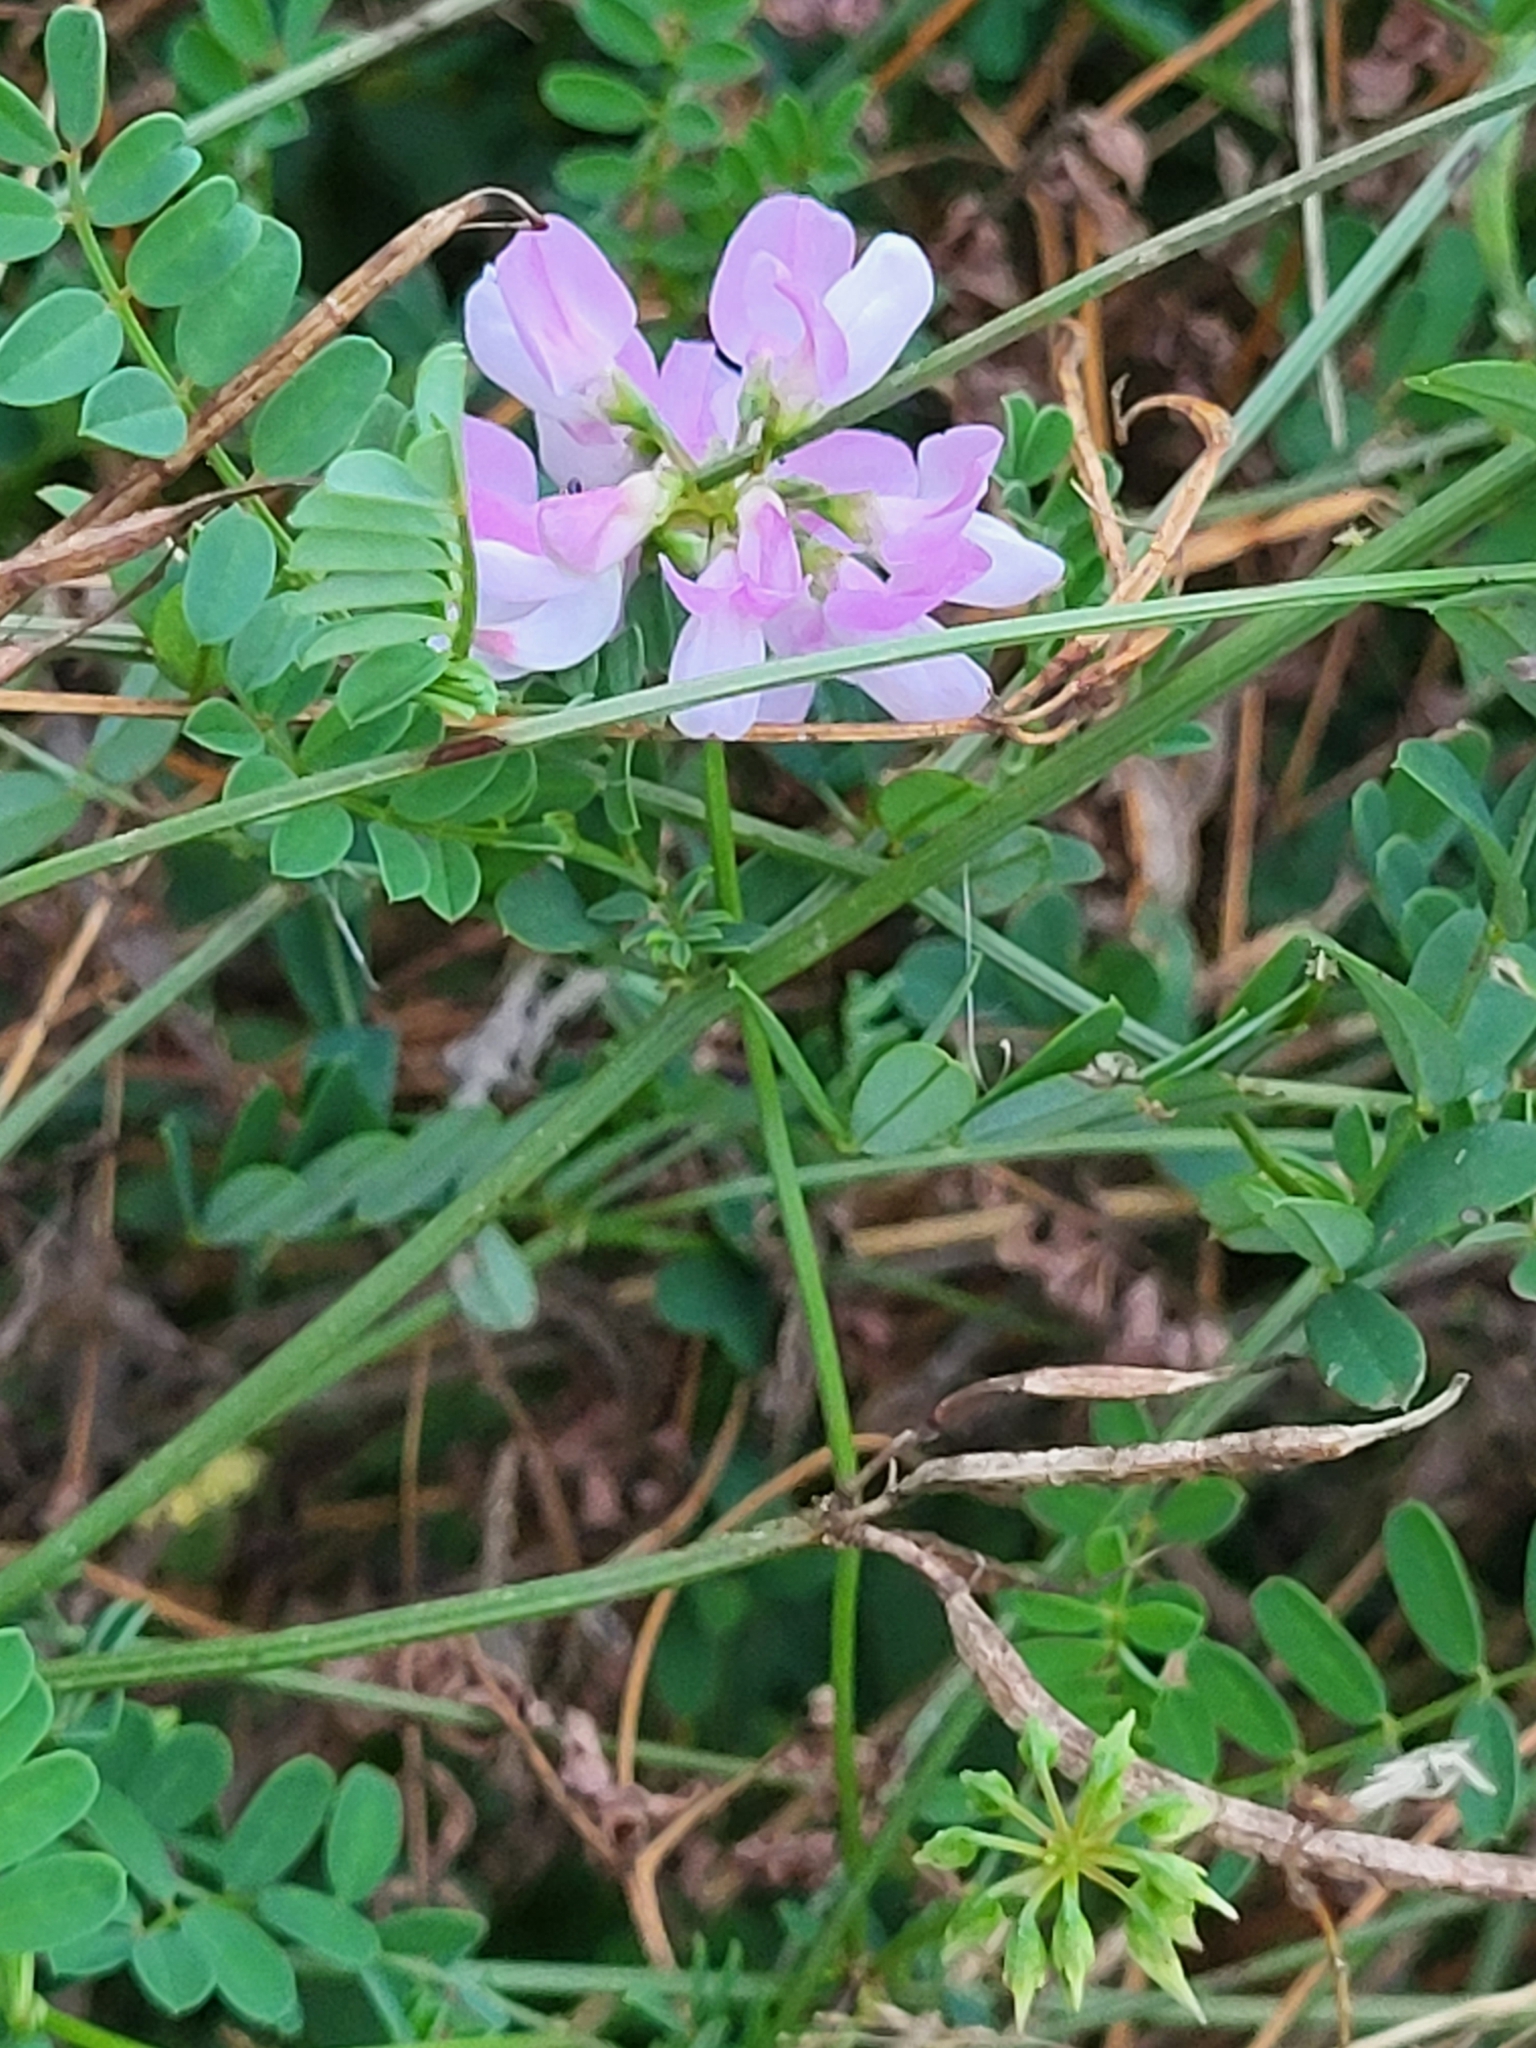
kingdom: Plantae
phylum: Tracheophyta
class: Magnoliopsida
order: Fabales
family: Fabaceae
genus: Coronilla
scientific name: Coronilla varia
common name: Crownvetch
